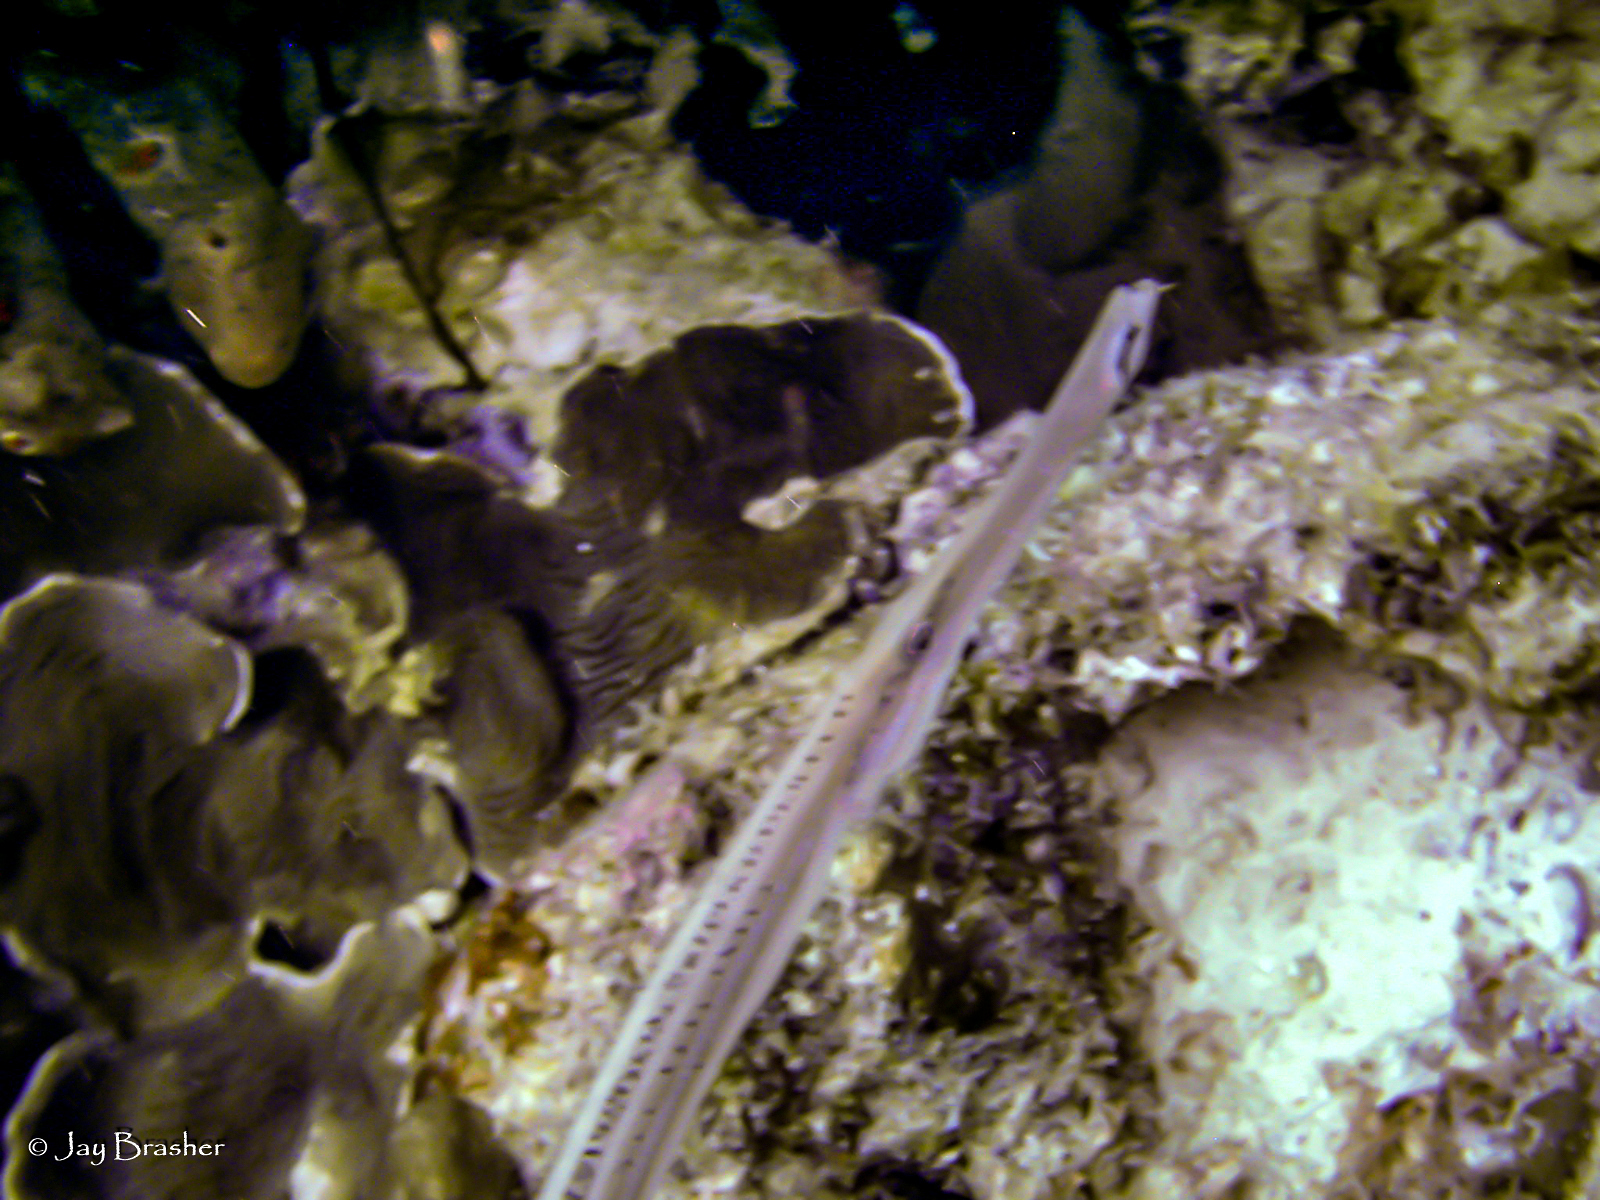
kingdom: Animalia
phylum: Chordata
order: Syngnathiformes
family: Aulostomidae
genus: Aulostomus
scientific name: Aulostomus maculatus
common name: West atlantic trumpetfish
